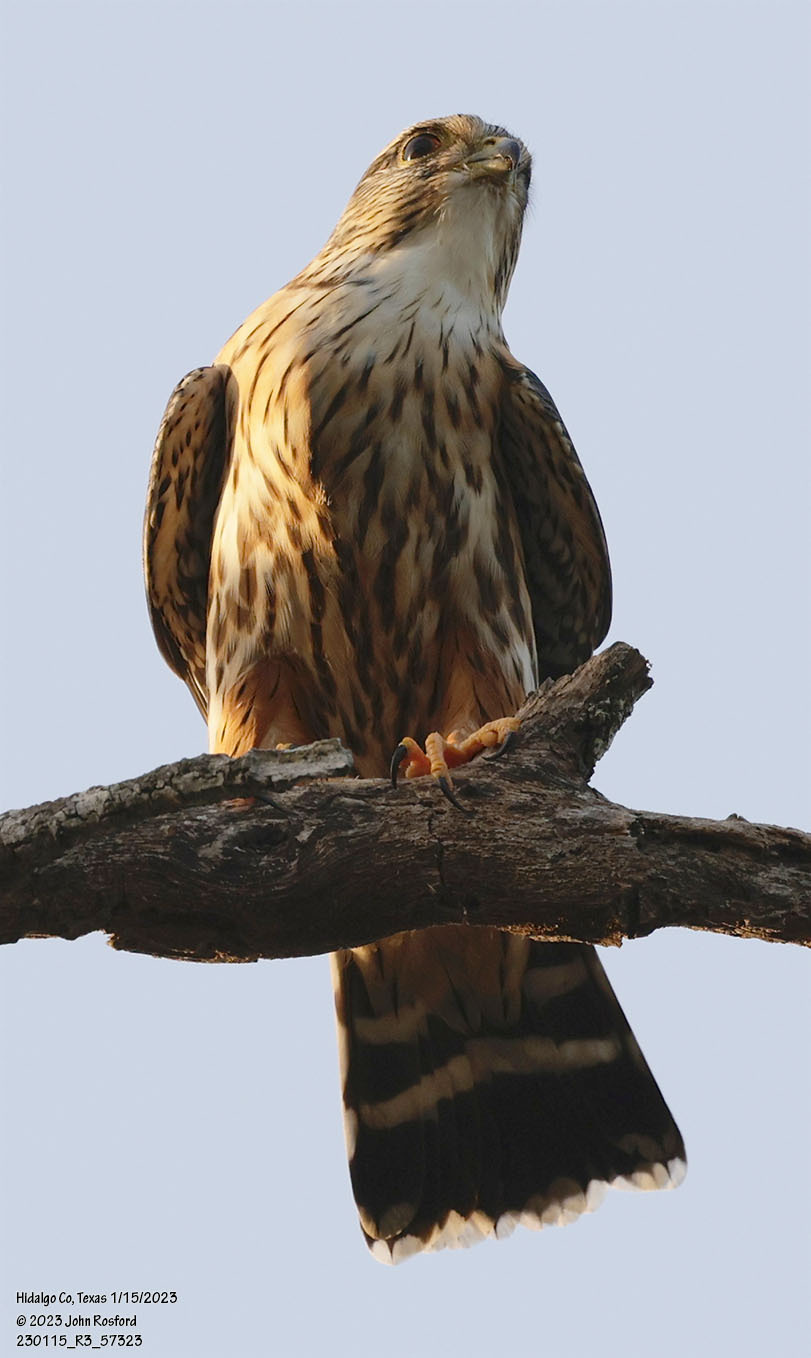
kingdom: Animalia
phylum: Chordata
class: Aves
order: Falconiformes
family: Falconidae
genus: Falco
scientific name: Falco columbarius
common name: Merlin
